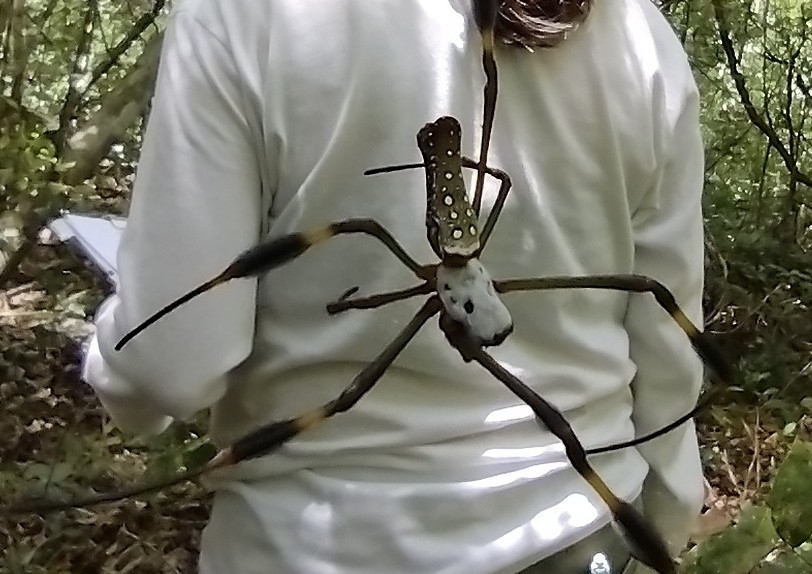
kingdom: Animalia
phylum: Arthropoda
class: Arachnida
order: Araneae
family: Araneidae
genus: Trichonephila
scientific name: Trichonephila clavipes
